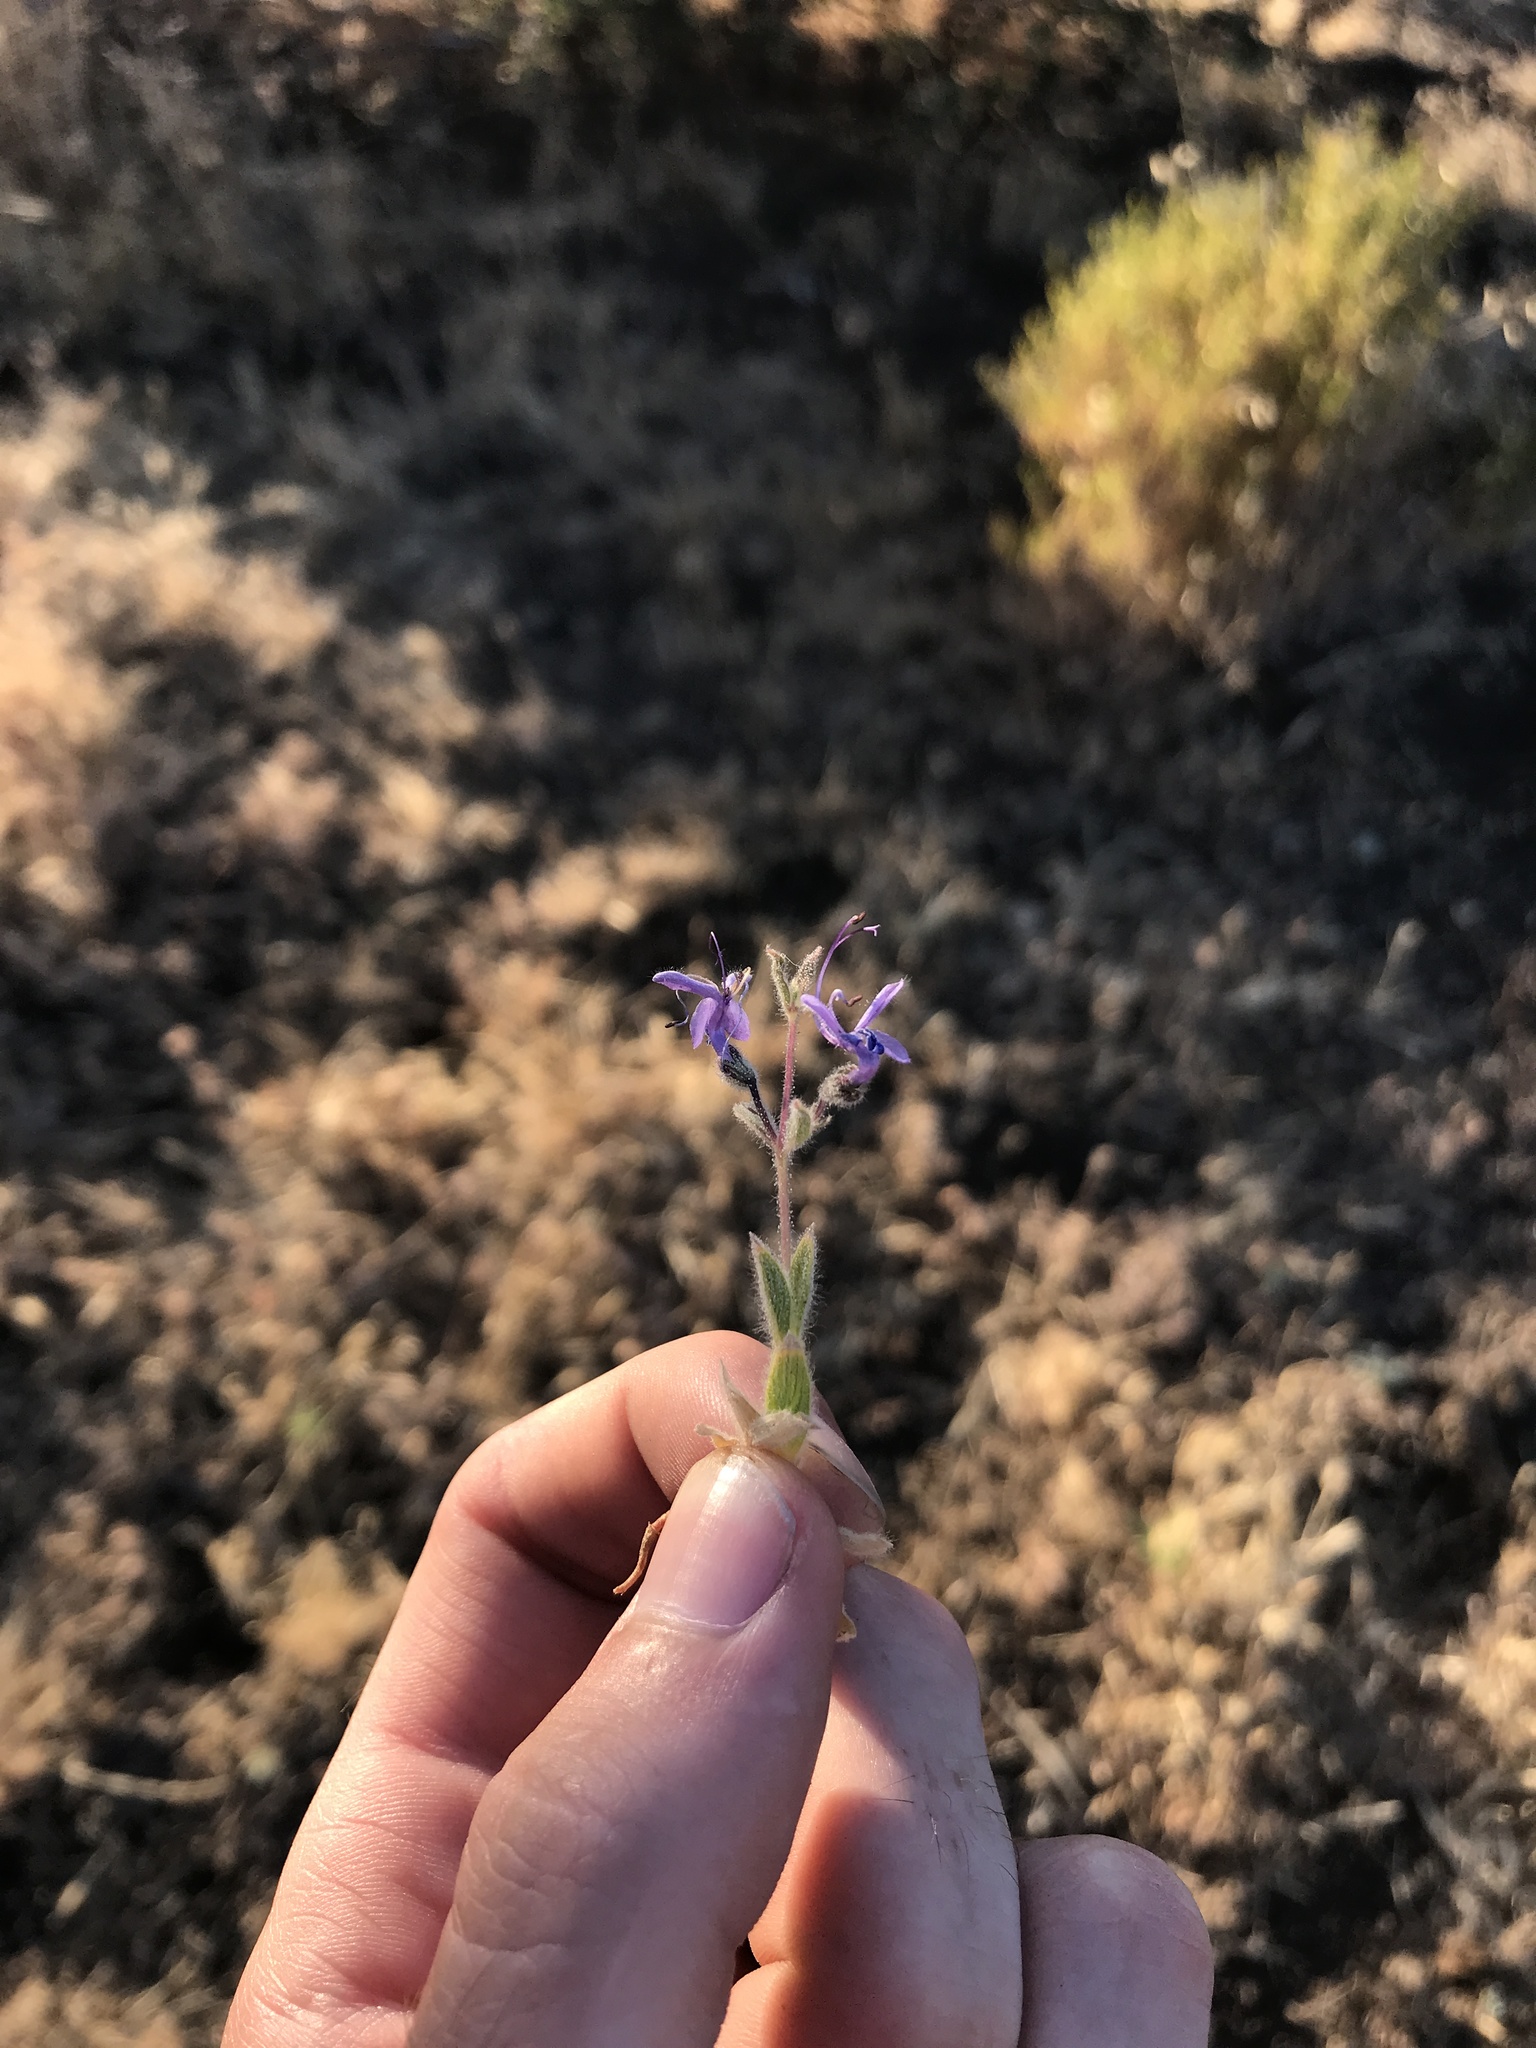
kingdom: Plantae
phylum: Tracheophyta
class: Magnoliopsida
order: Lamiales
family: Lamiaceae
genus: Trichostema
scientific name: Trichostema lanceolatum
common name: Vinegar-weed
